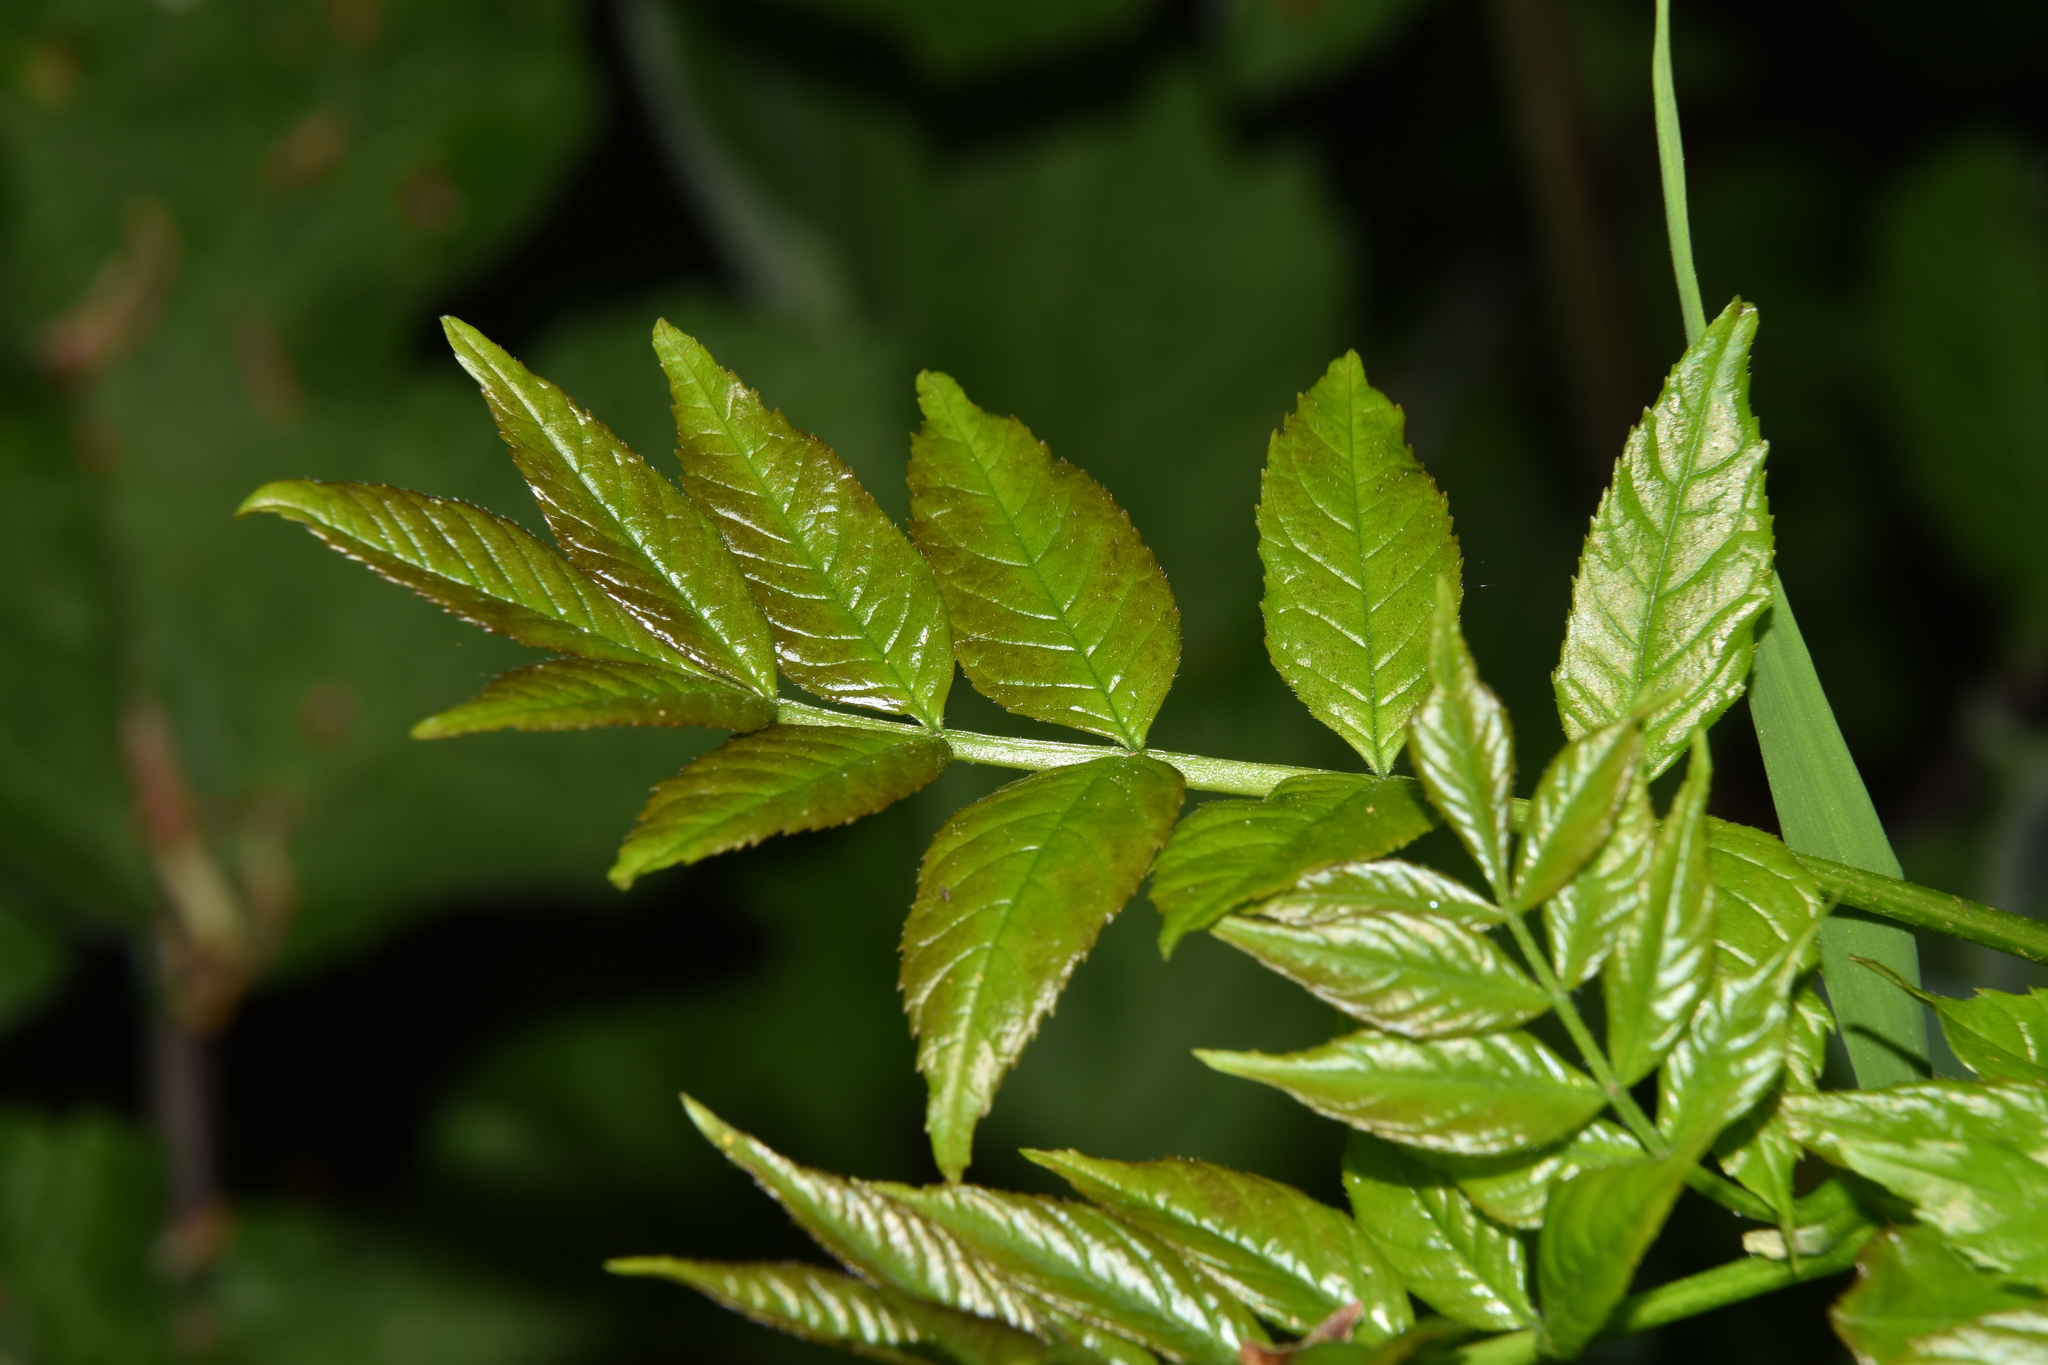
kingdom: Plantae
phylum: Tracheophyta
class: Magnoliopsida
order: Lamiales
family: Oleaceae
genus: Fraxinus
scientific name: Fraxinus excelsior
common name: European ash
